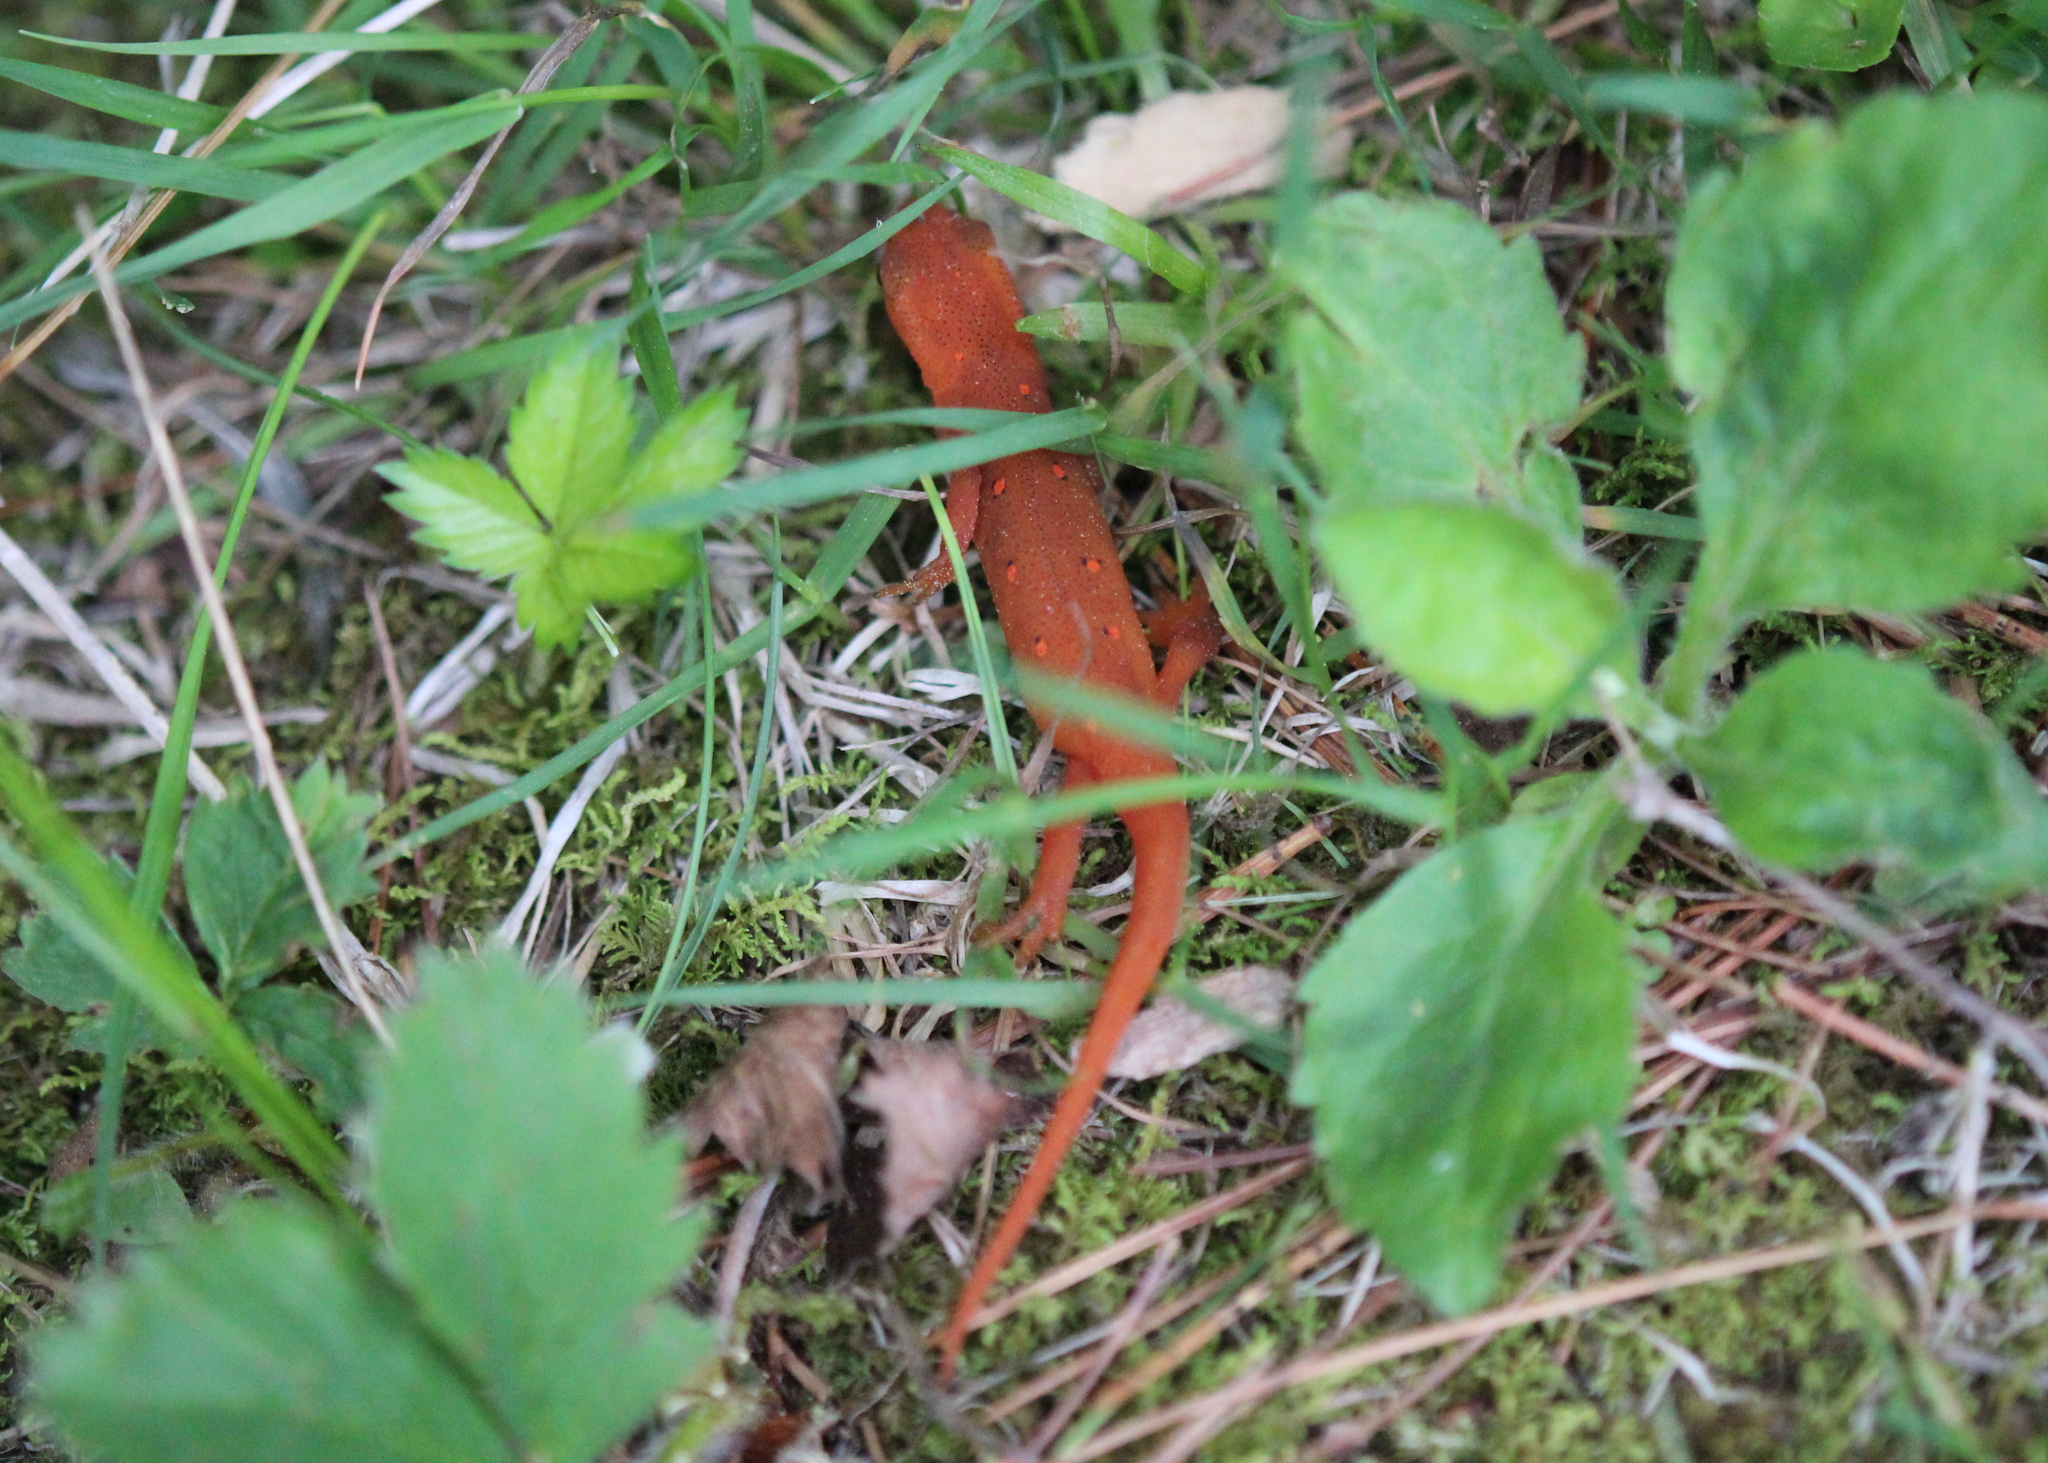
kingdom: Animalia
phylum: Chordata
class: Amphibia
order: Caudata
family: Salamandridae
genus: Notophthalmus
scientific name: Notophthalmus viridescens
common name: Eastern newt
